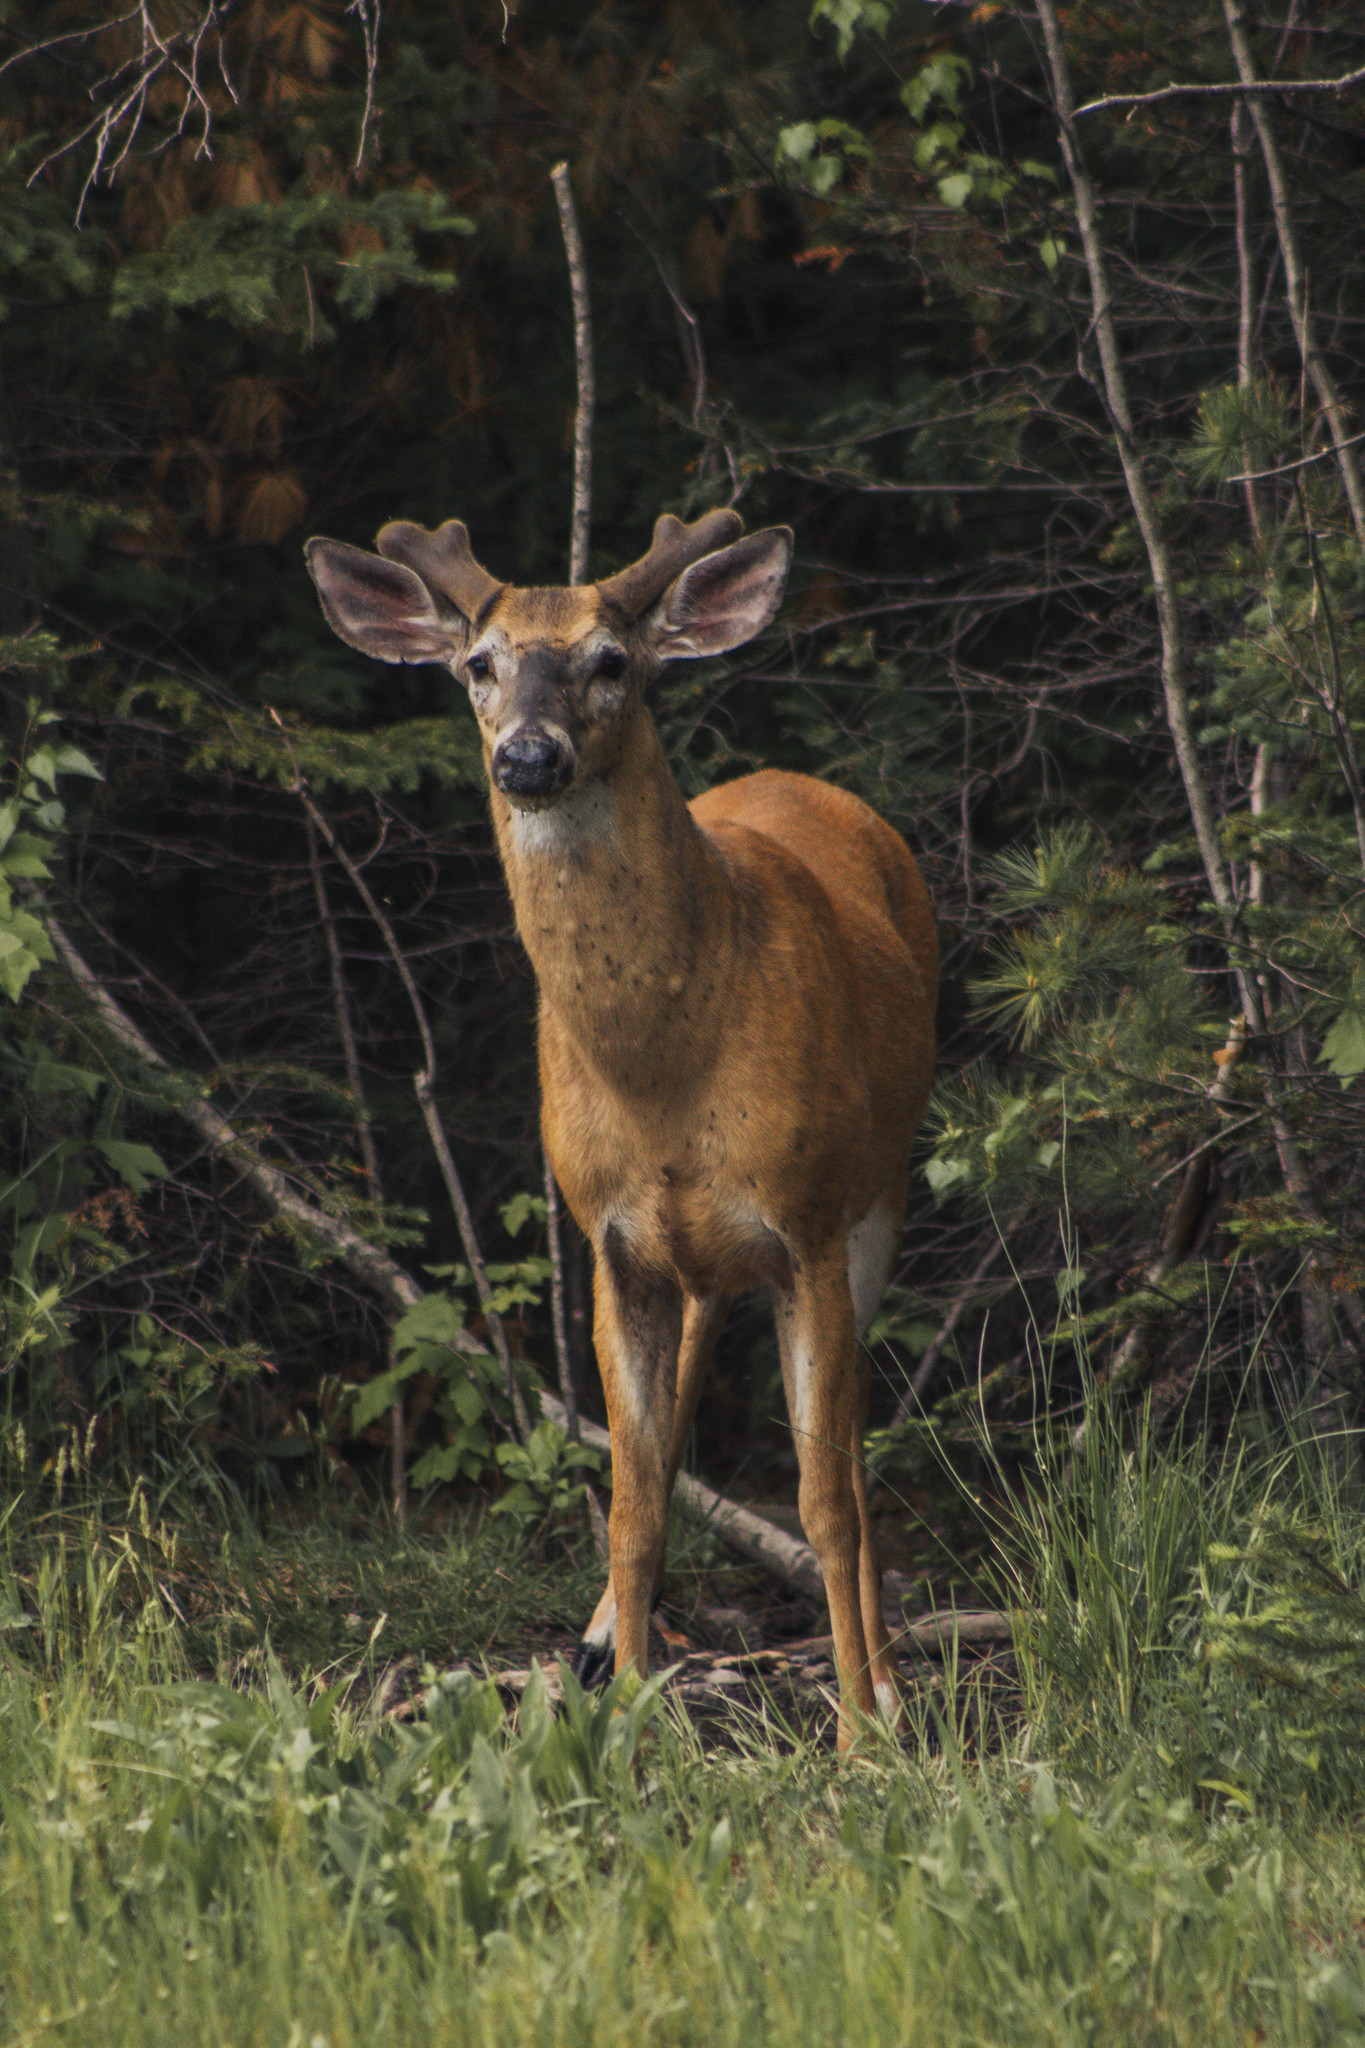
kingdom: Animalia
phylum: Chordata
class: Mammalia
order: Artiodactyla
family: Cervidae
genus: Odocoileus
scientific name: Odocoileus virginianus
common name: White-tailed deer
